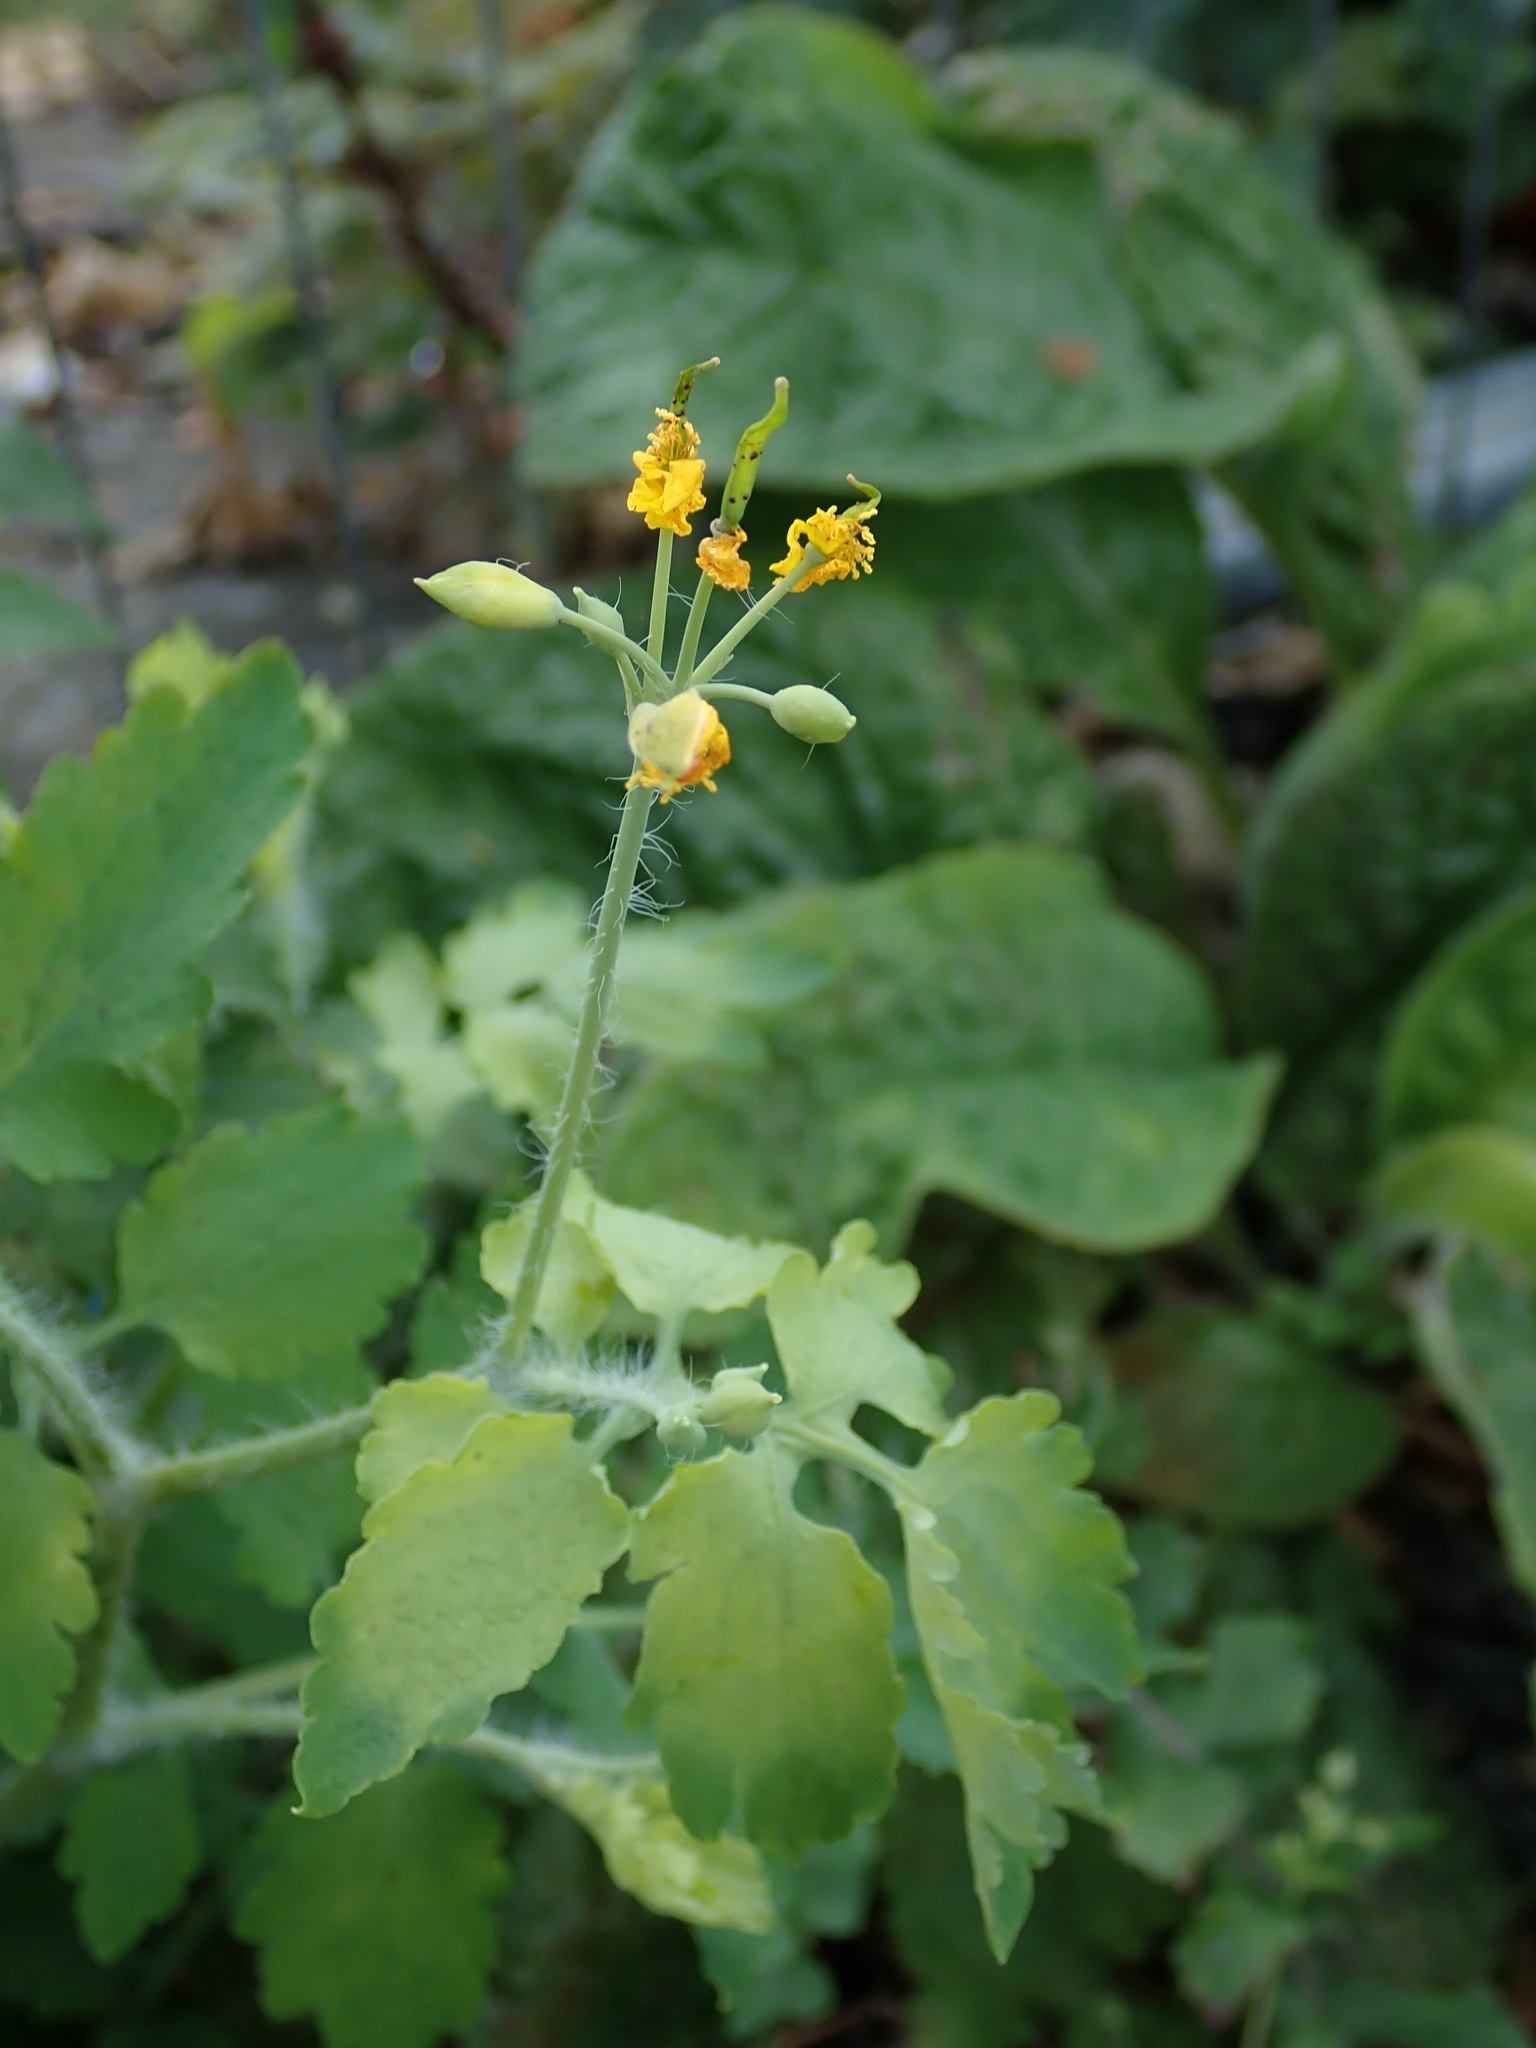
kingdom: Plantae
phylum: Tracheophyta
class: Magnoliopsida
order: Ranunculales
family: Papaveraceae
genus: Chelidonium
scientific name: Chelidonium majus
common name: Greater celandine
